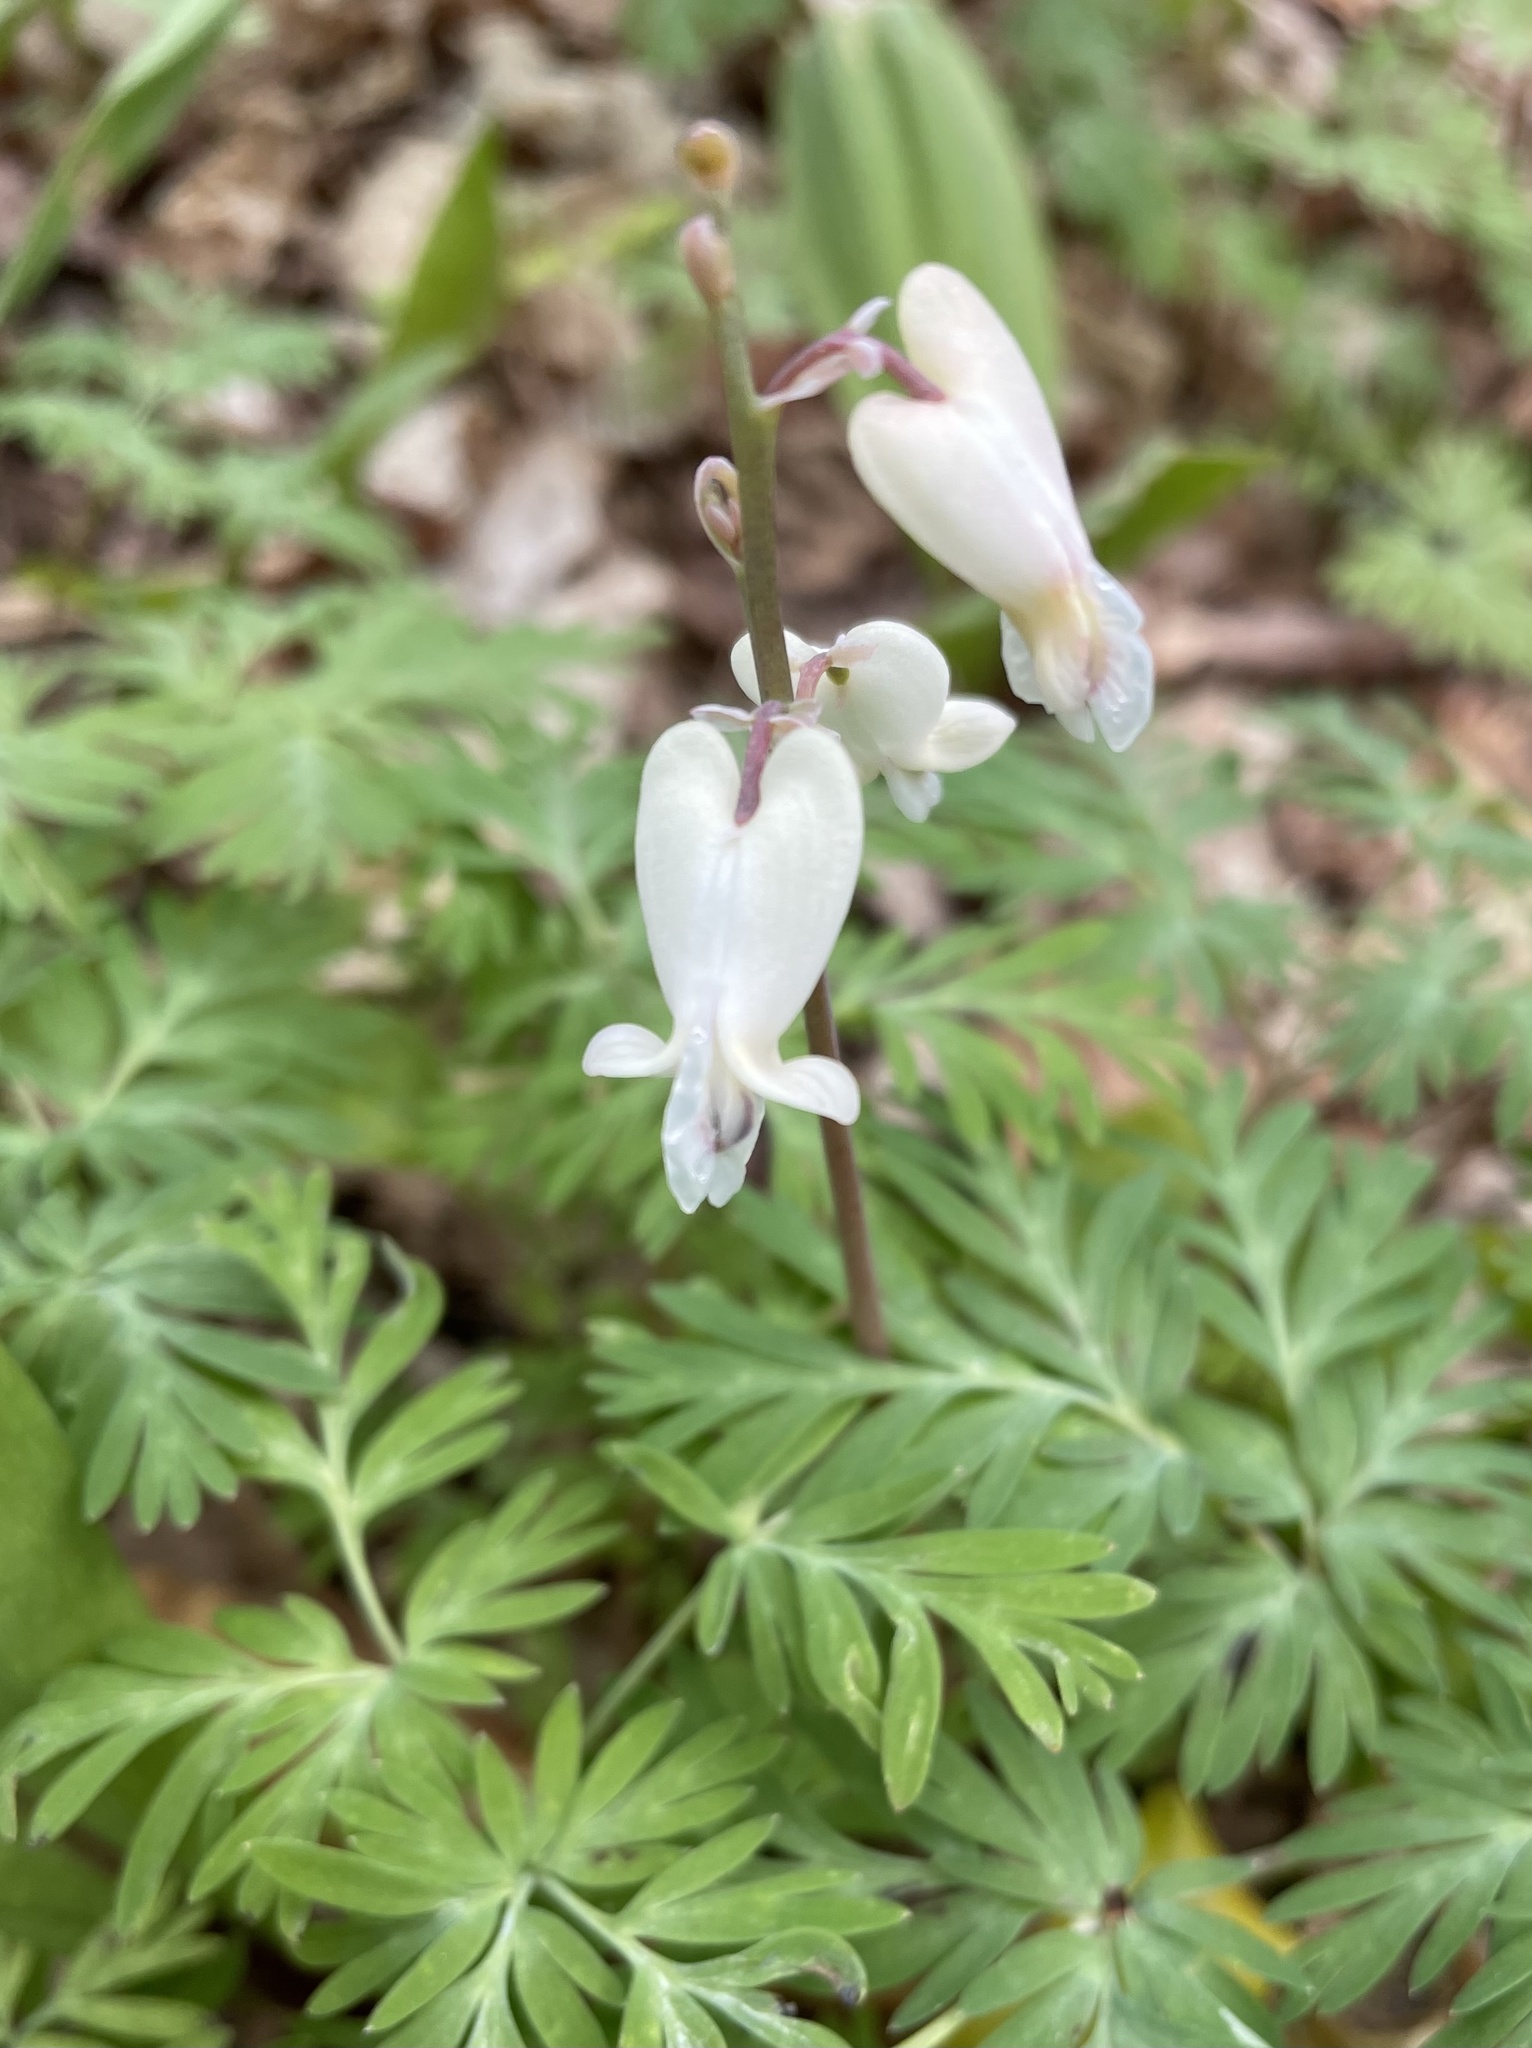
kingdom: Plantae
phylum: Tracheophyta
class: Magnoliopsida
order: Ranunculales
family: Papaveraceae
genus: Dicentra
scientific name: Dicentra canadensis
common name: Squirrel-corn
